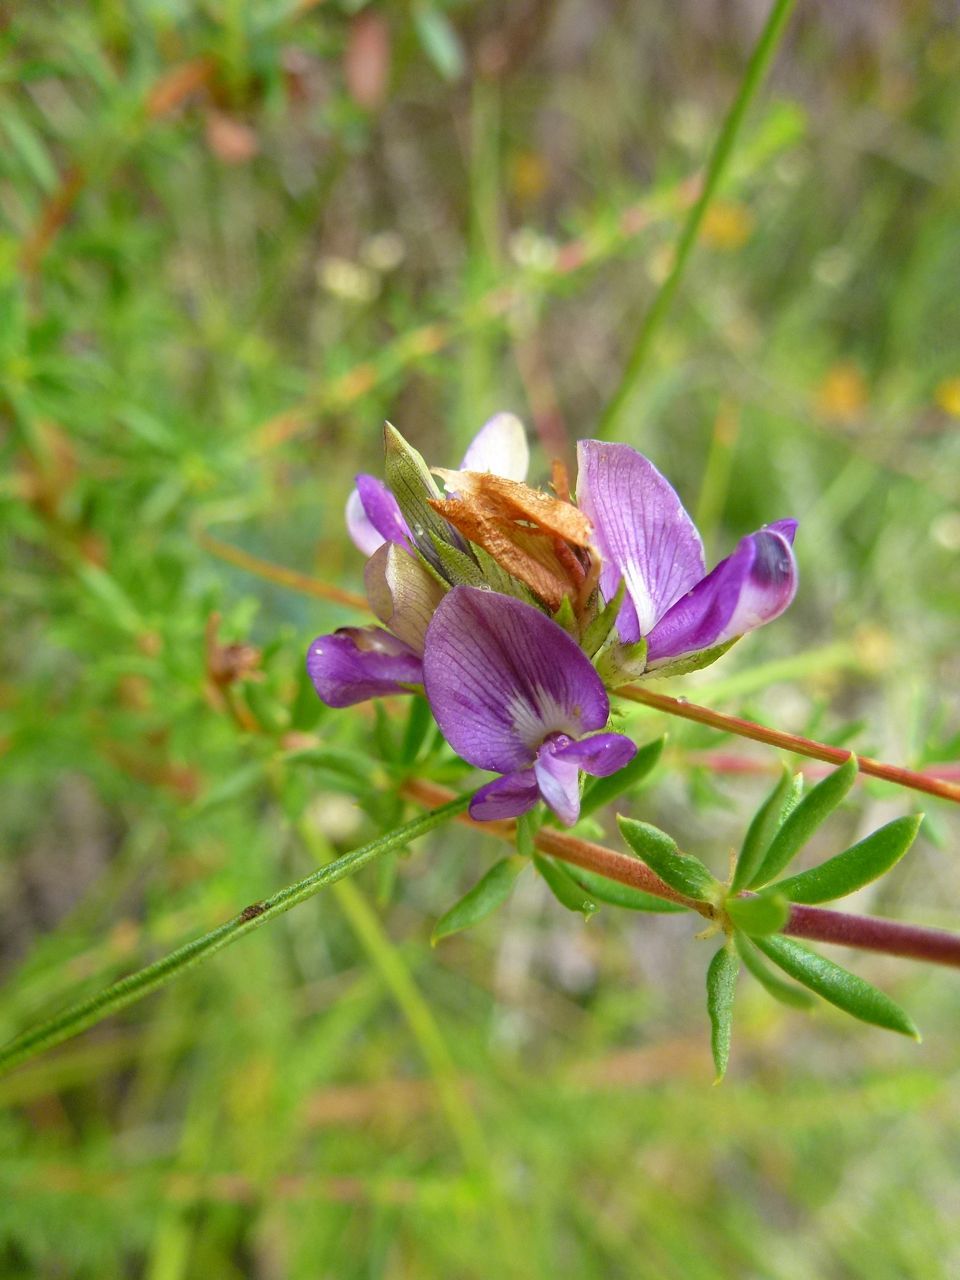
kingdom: Plantae
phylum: Tracheophyta
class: Magnoliopsida
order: Fabales
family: Fabaceae
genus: Psoralea
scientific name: Psoralea ensifolia
